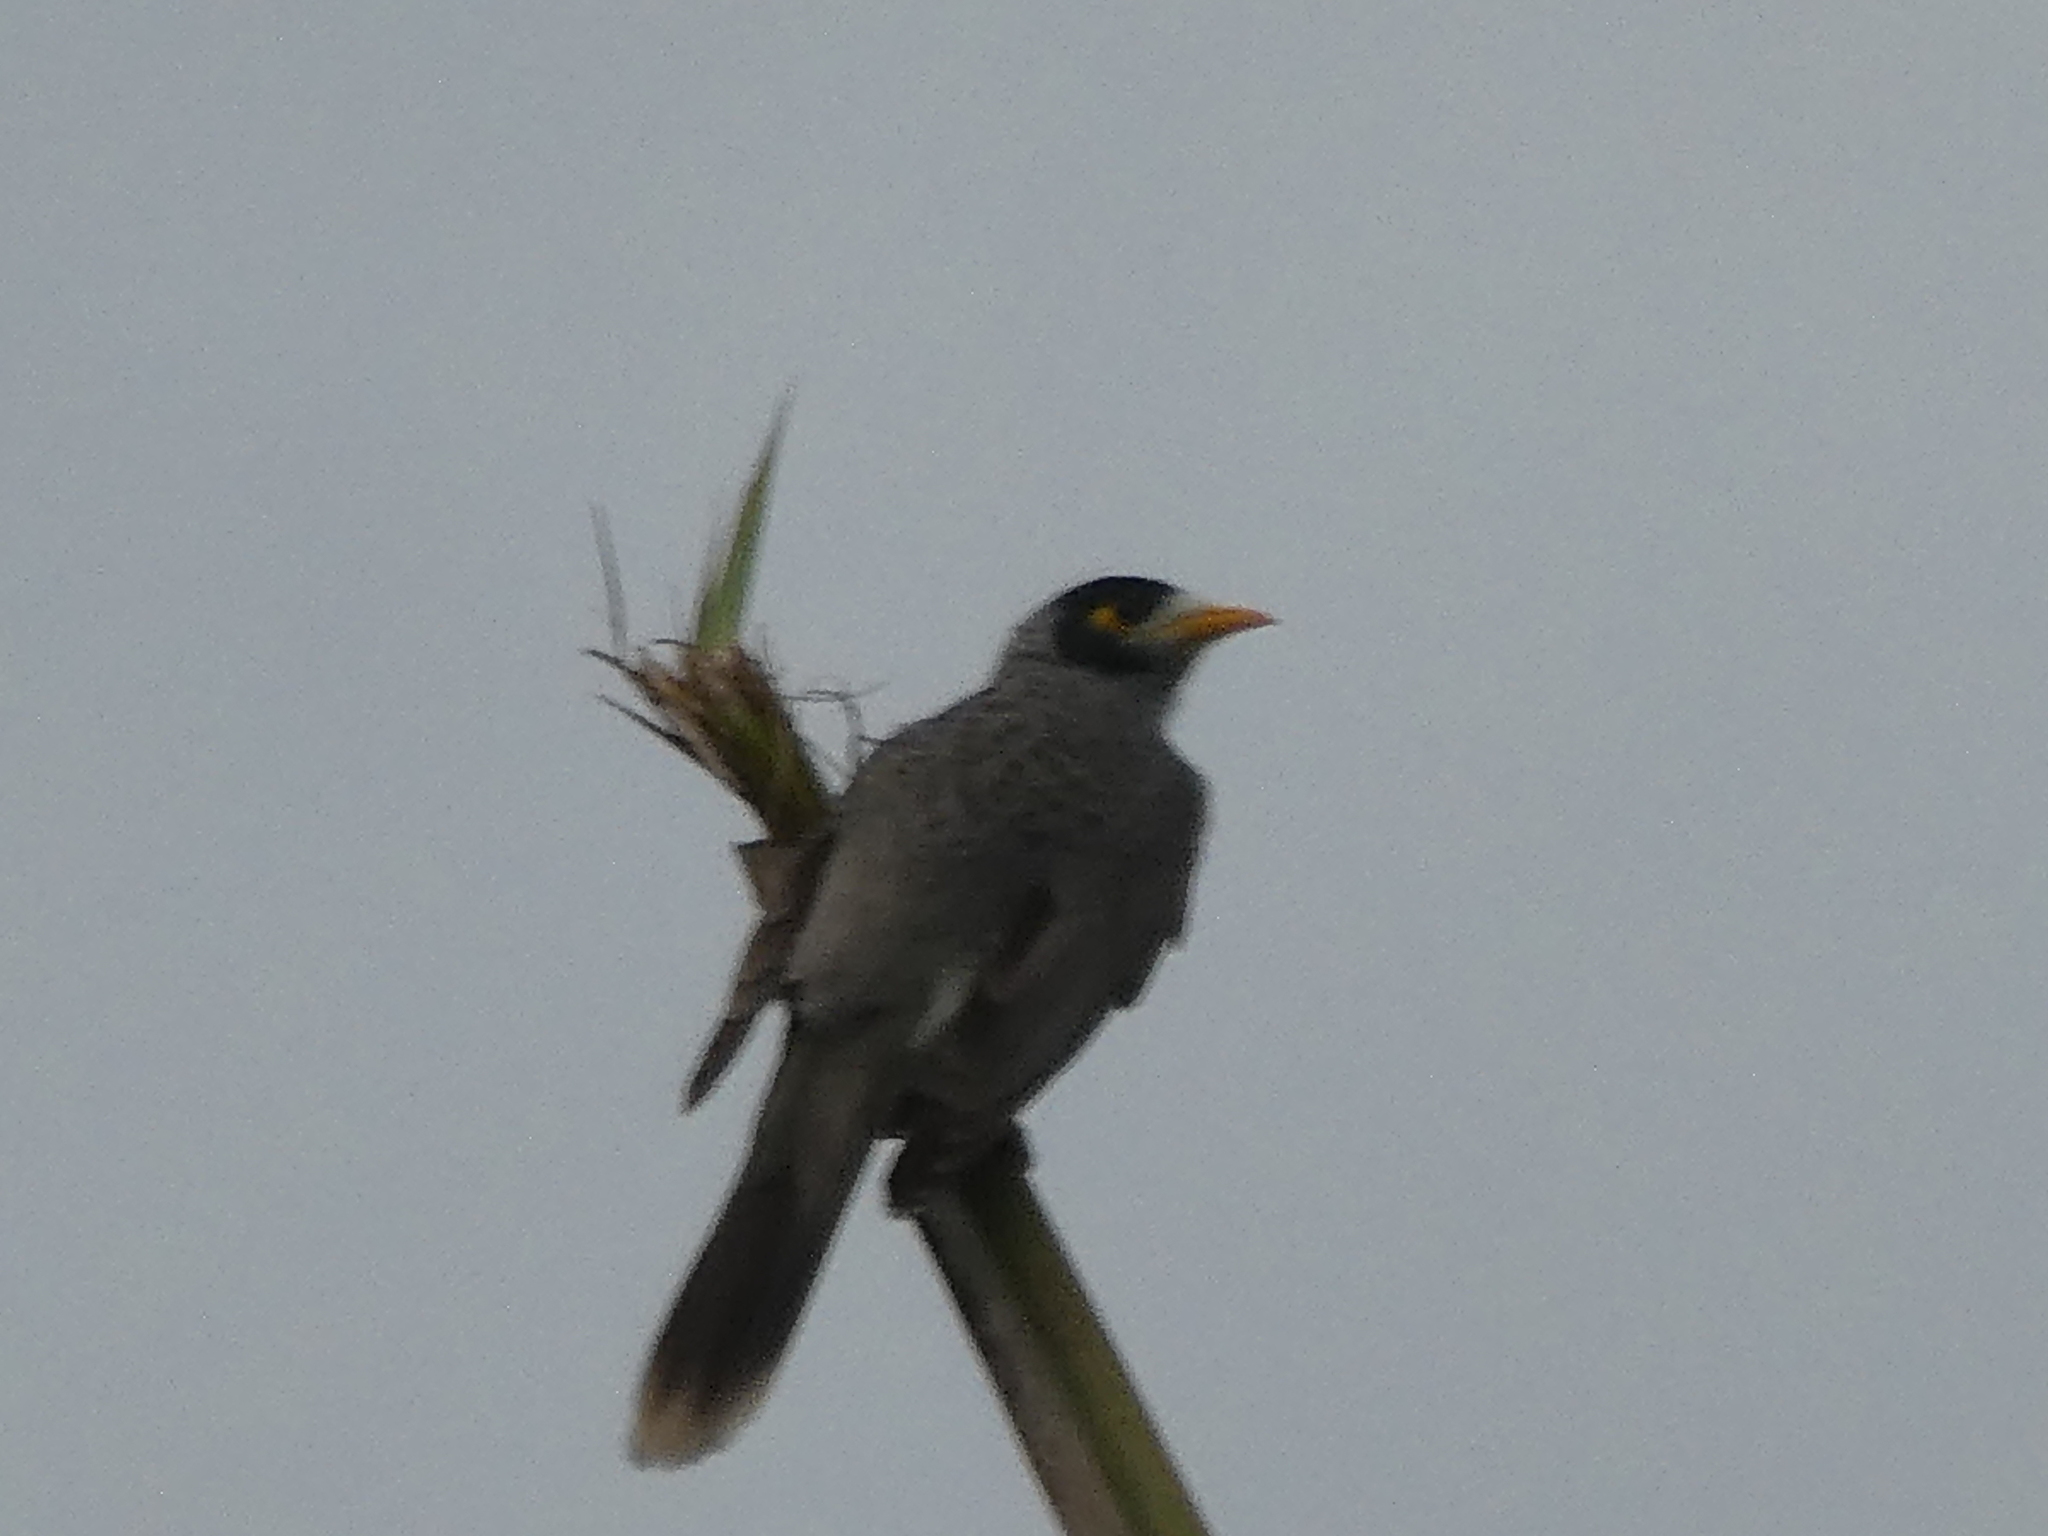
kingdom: Animalia
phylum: Chordata
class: Aves
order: Passeriformes
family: Meliphagidae
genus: Manorina
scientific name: Manorina melanocephala
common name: Noisy miner
